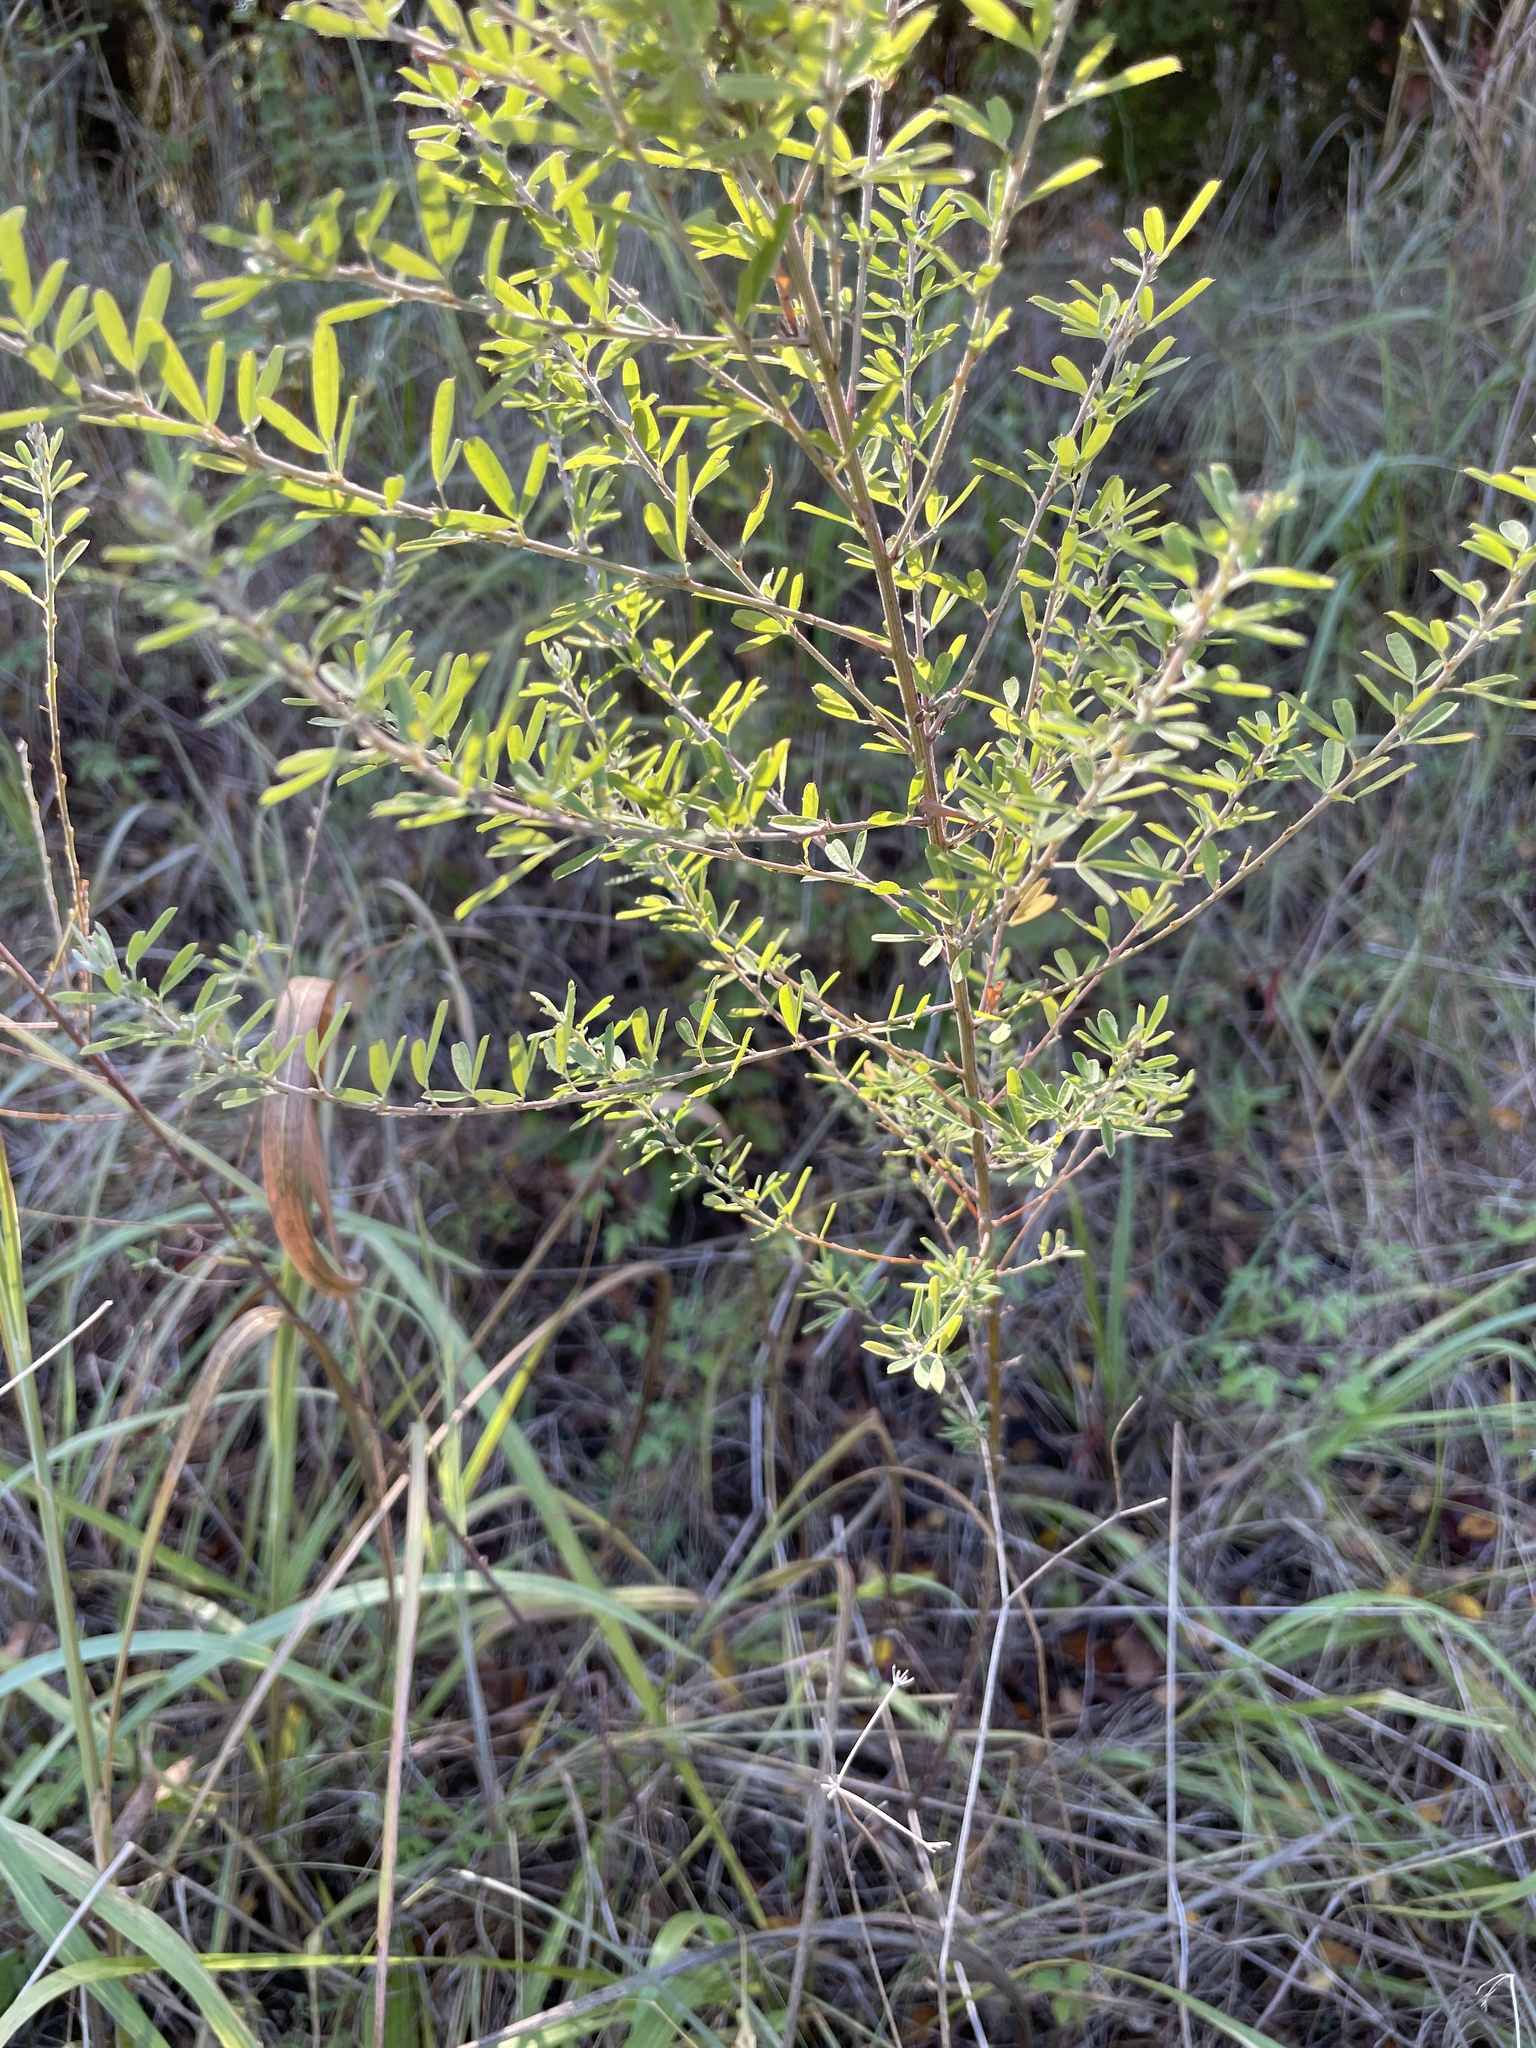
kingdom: Plantae
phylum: Tracheophyta
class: Magnoliopsida
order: Fabales
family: Fabaceae
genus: Lespedeza
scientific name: Lespedeza cuneata
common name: Chinese bush-clover
